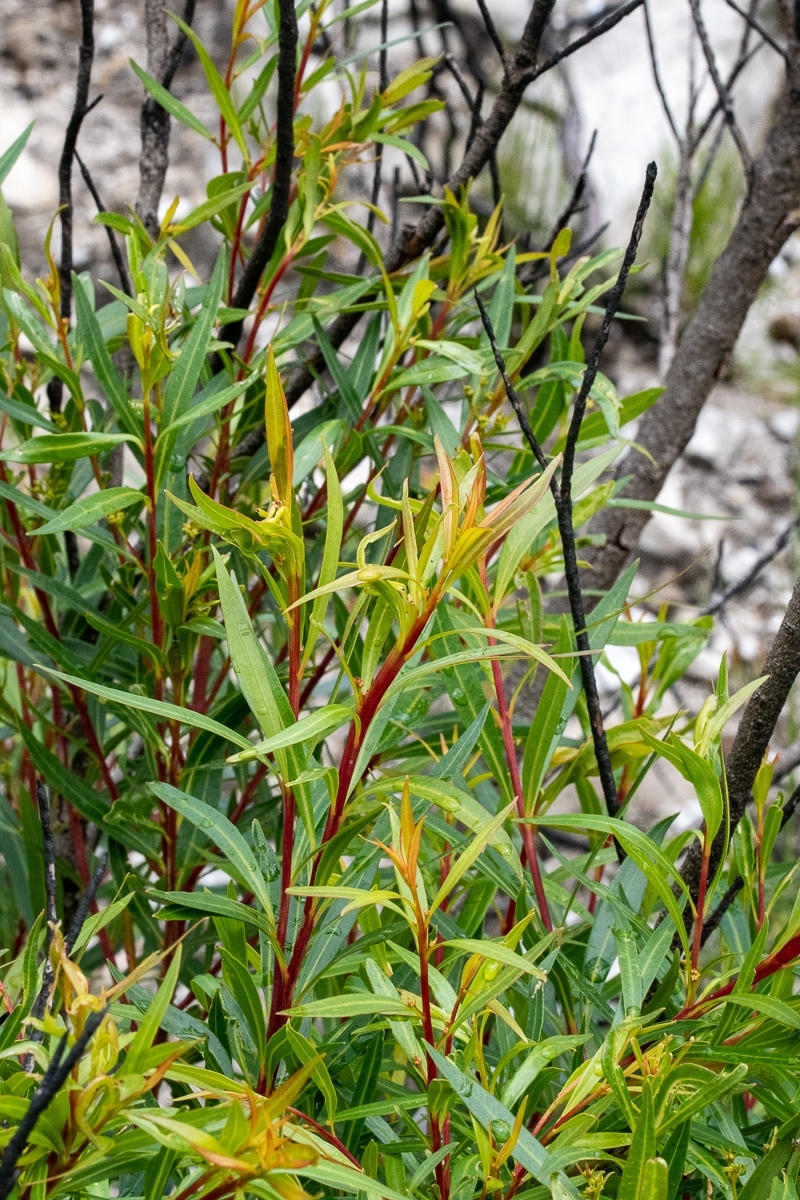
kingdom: Plantae
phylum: Tracheophyta
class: Magnoliopsida
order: Myrtales
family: Myrtaceae
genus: Callistemon
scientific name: Callistemon lanceolatus
